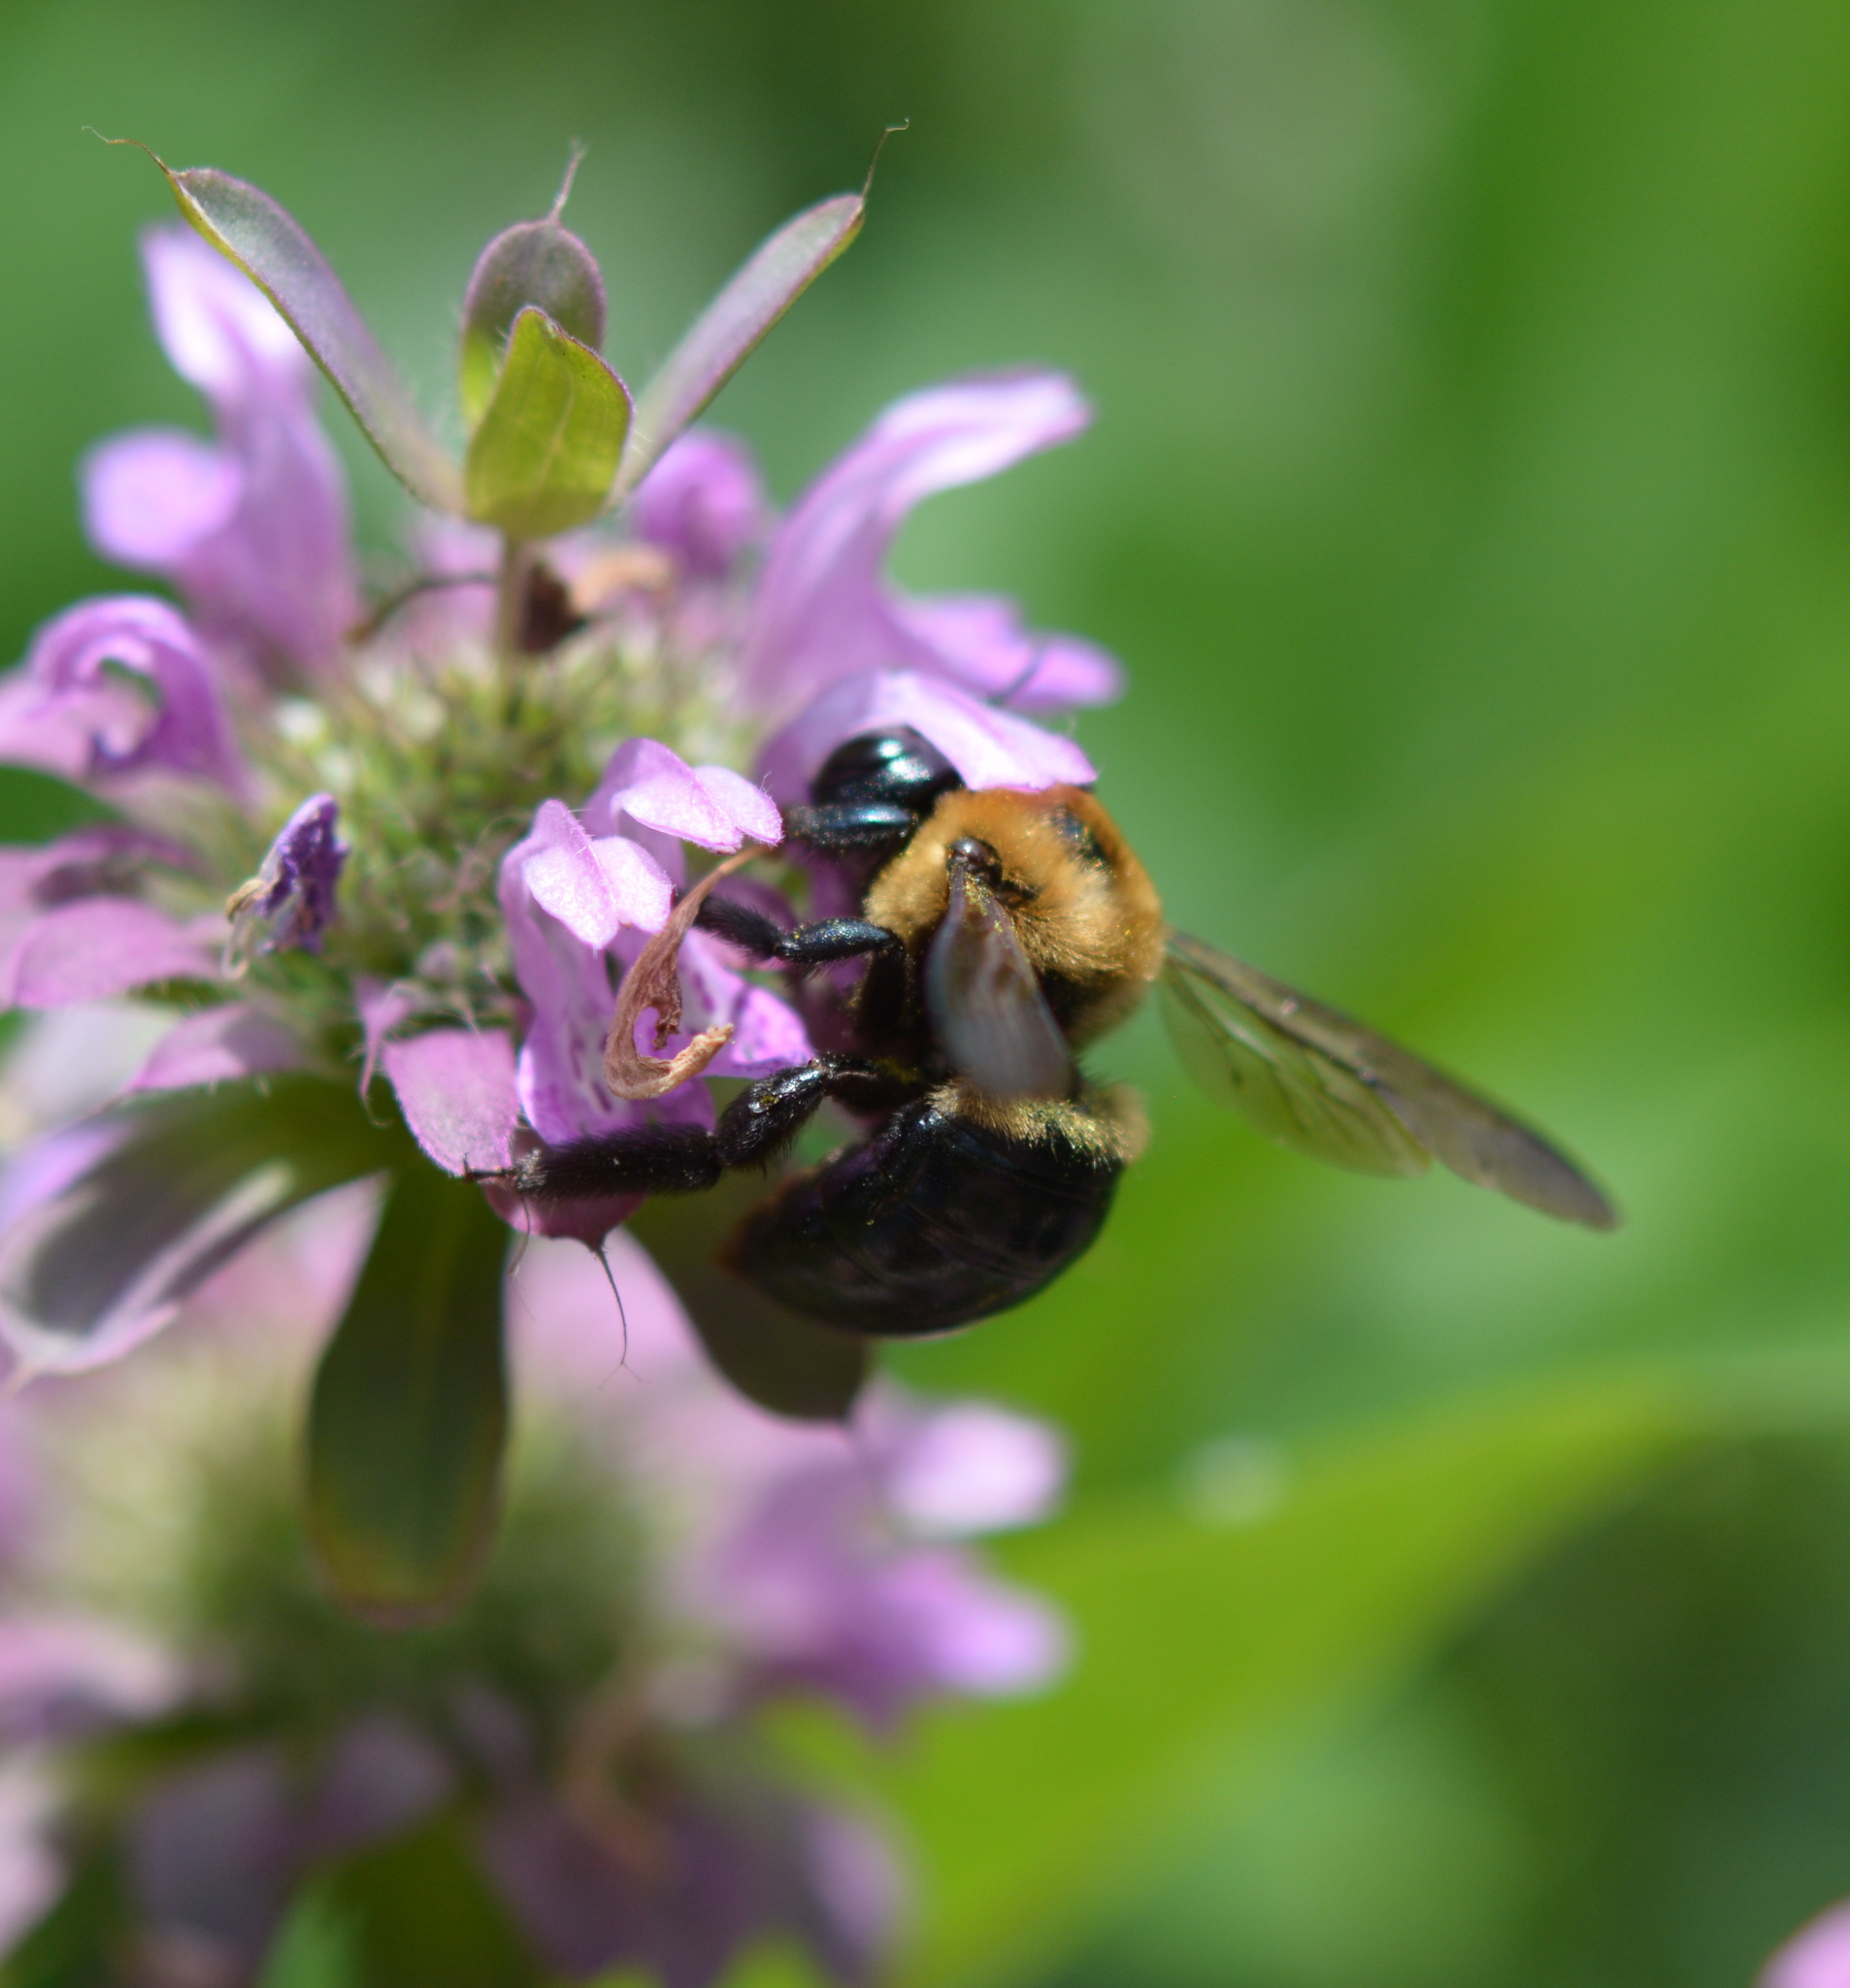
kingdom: Animalia
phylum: Arthropoda
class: Insecta
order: Hymenoptera
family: Apidae
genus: Xylocopa
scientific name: Xylocopa virginica
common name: Carpenter bee
